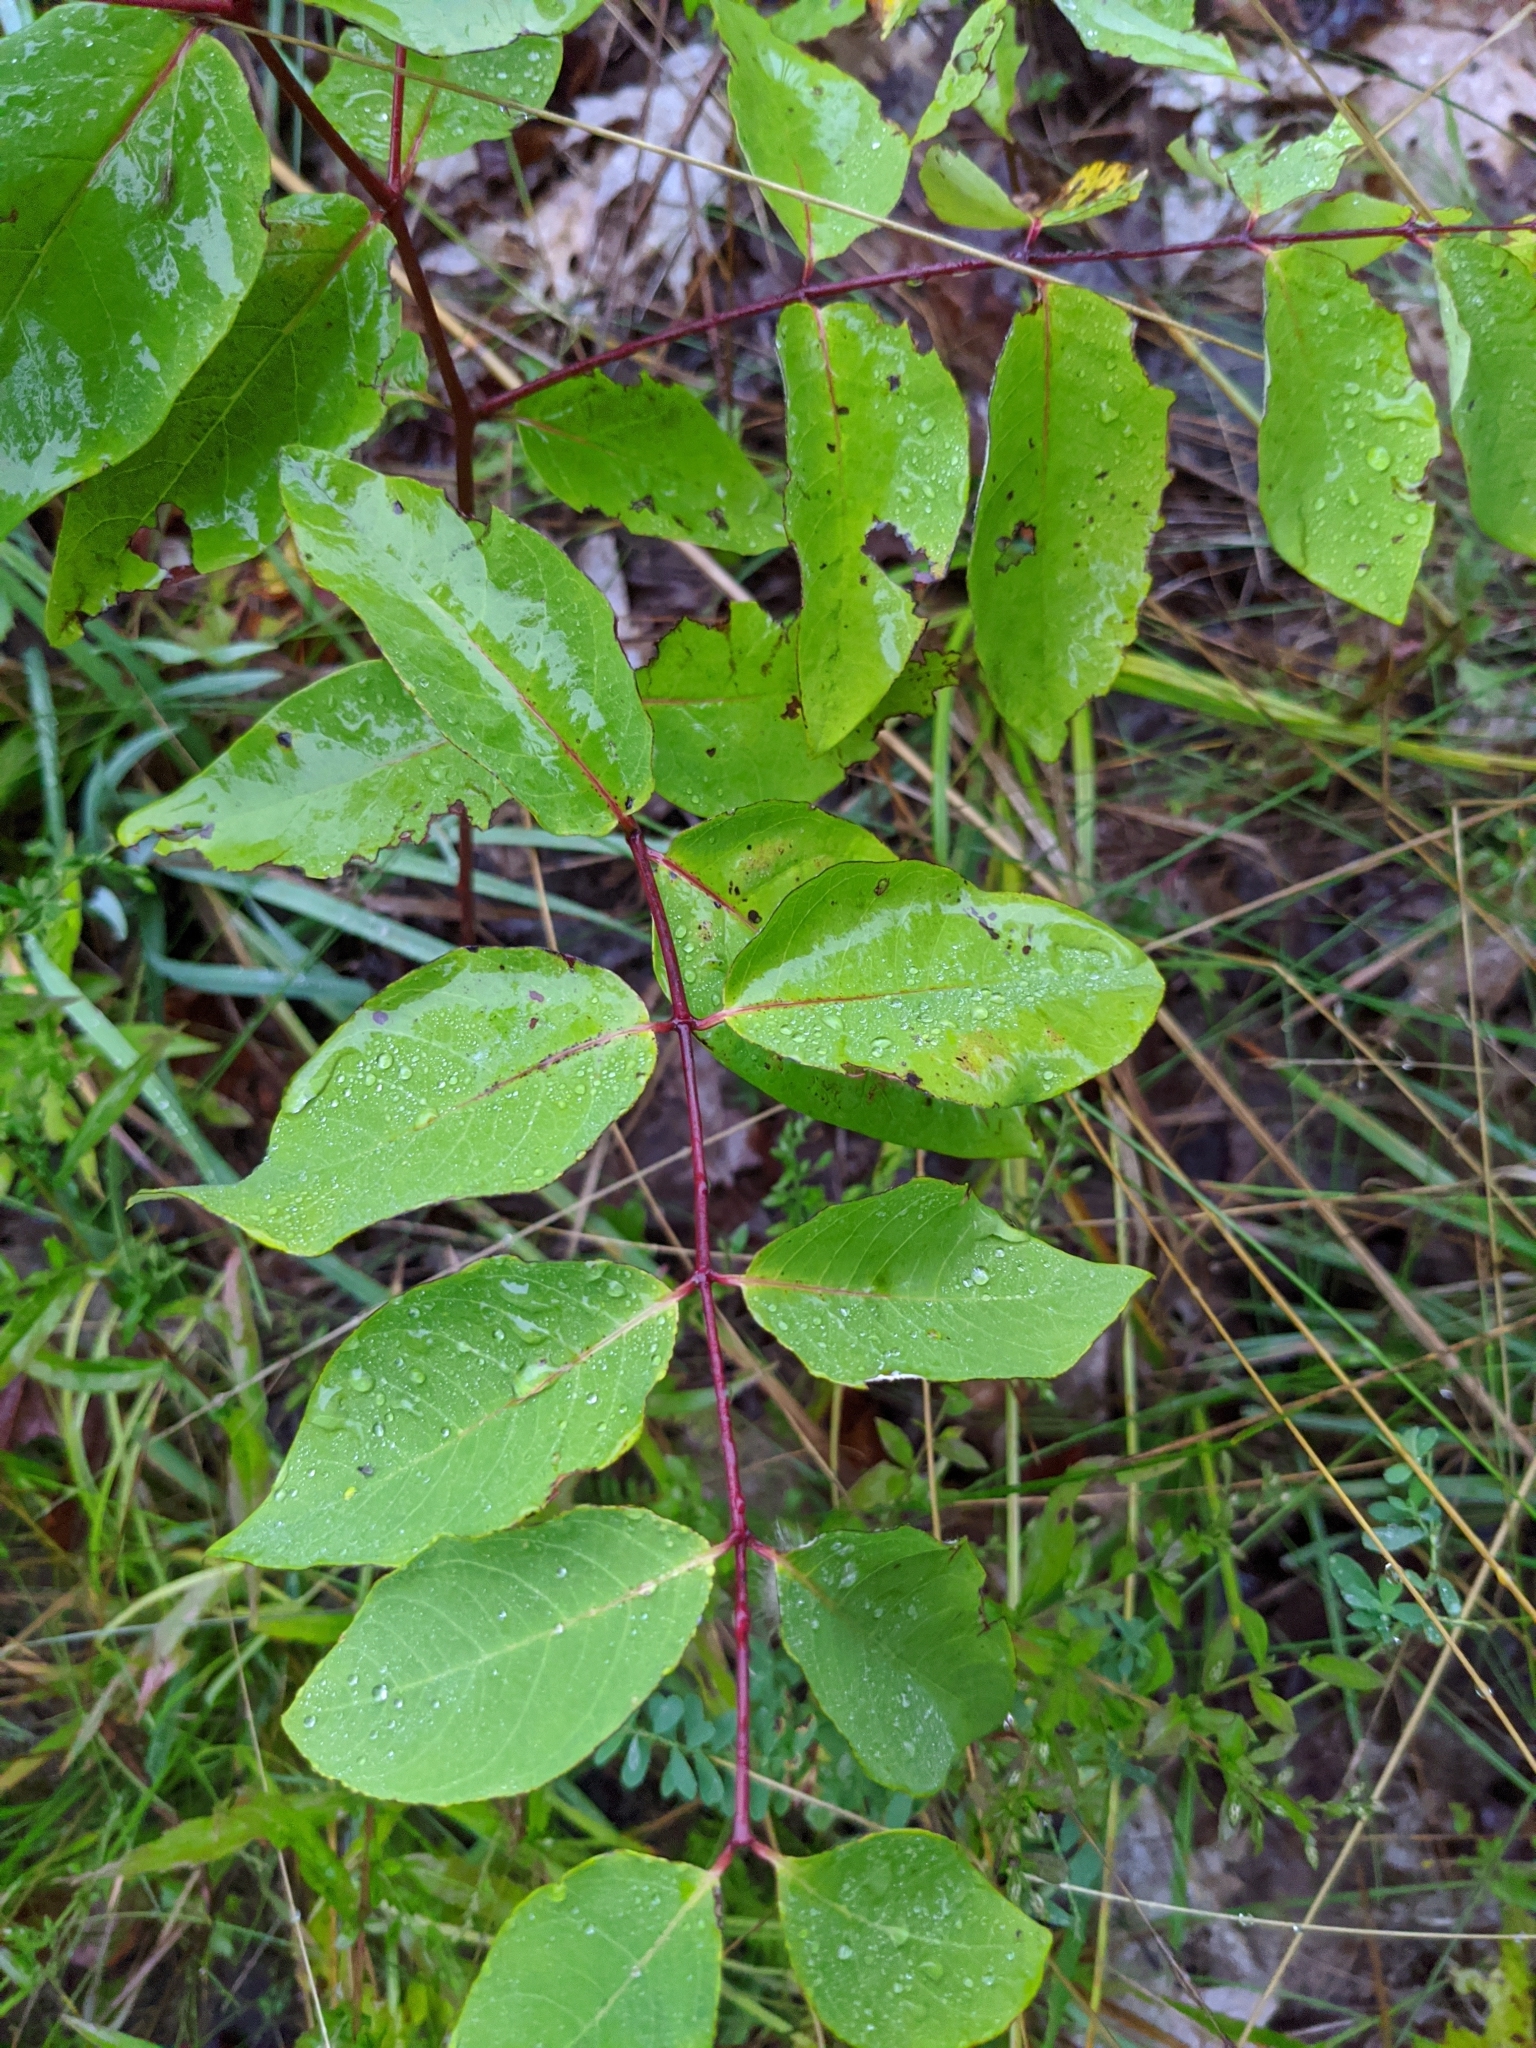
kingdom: Plantae
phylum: Tracheophyta
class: Magnoliopsida
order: Gentianales
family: Apocynaceae
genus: Apocynum
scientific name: Apocynum androsaemifolium
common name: Spreading dogbane
